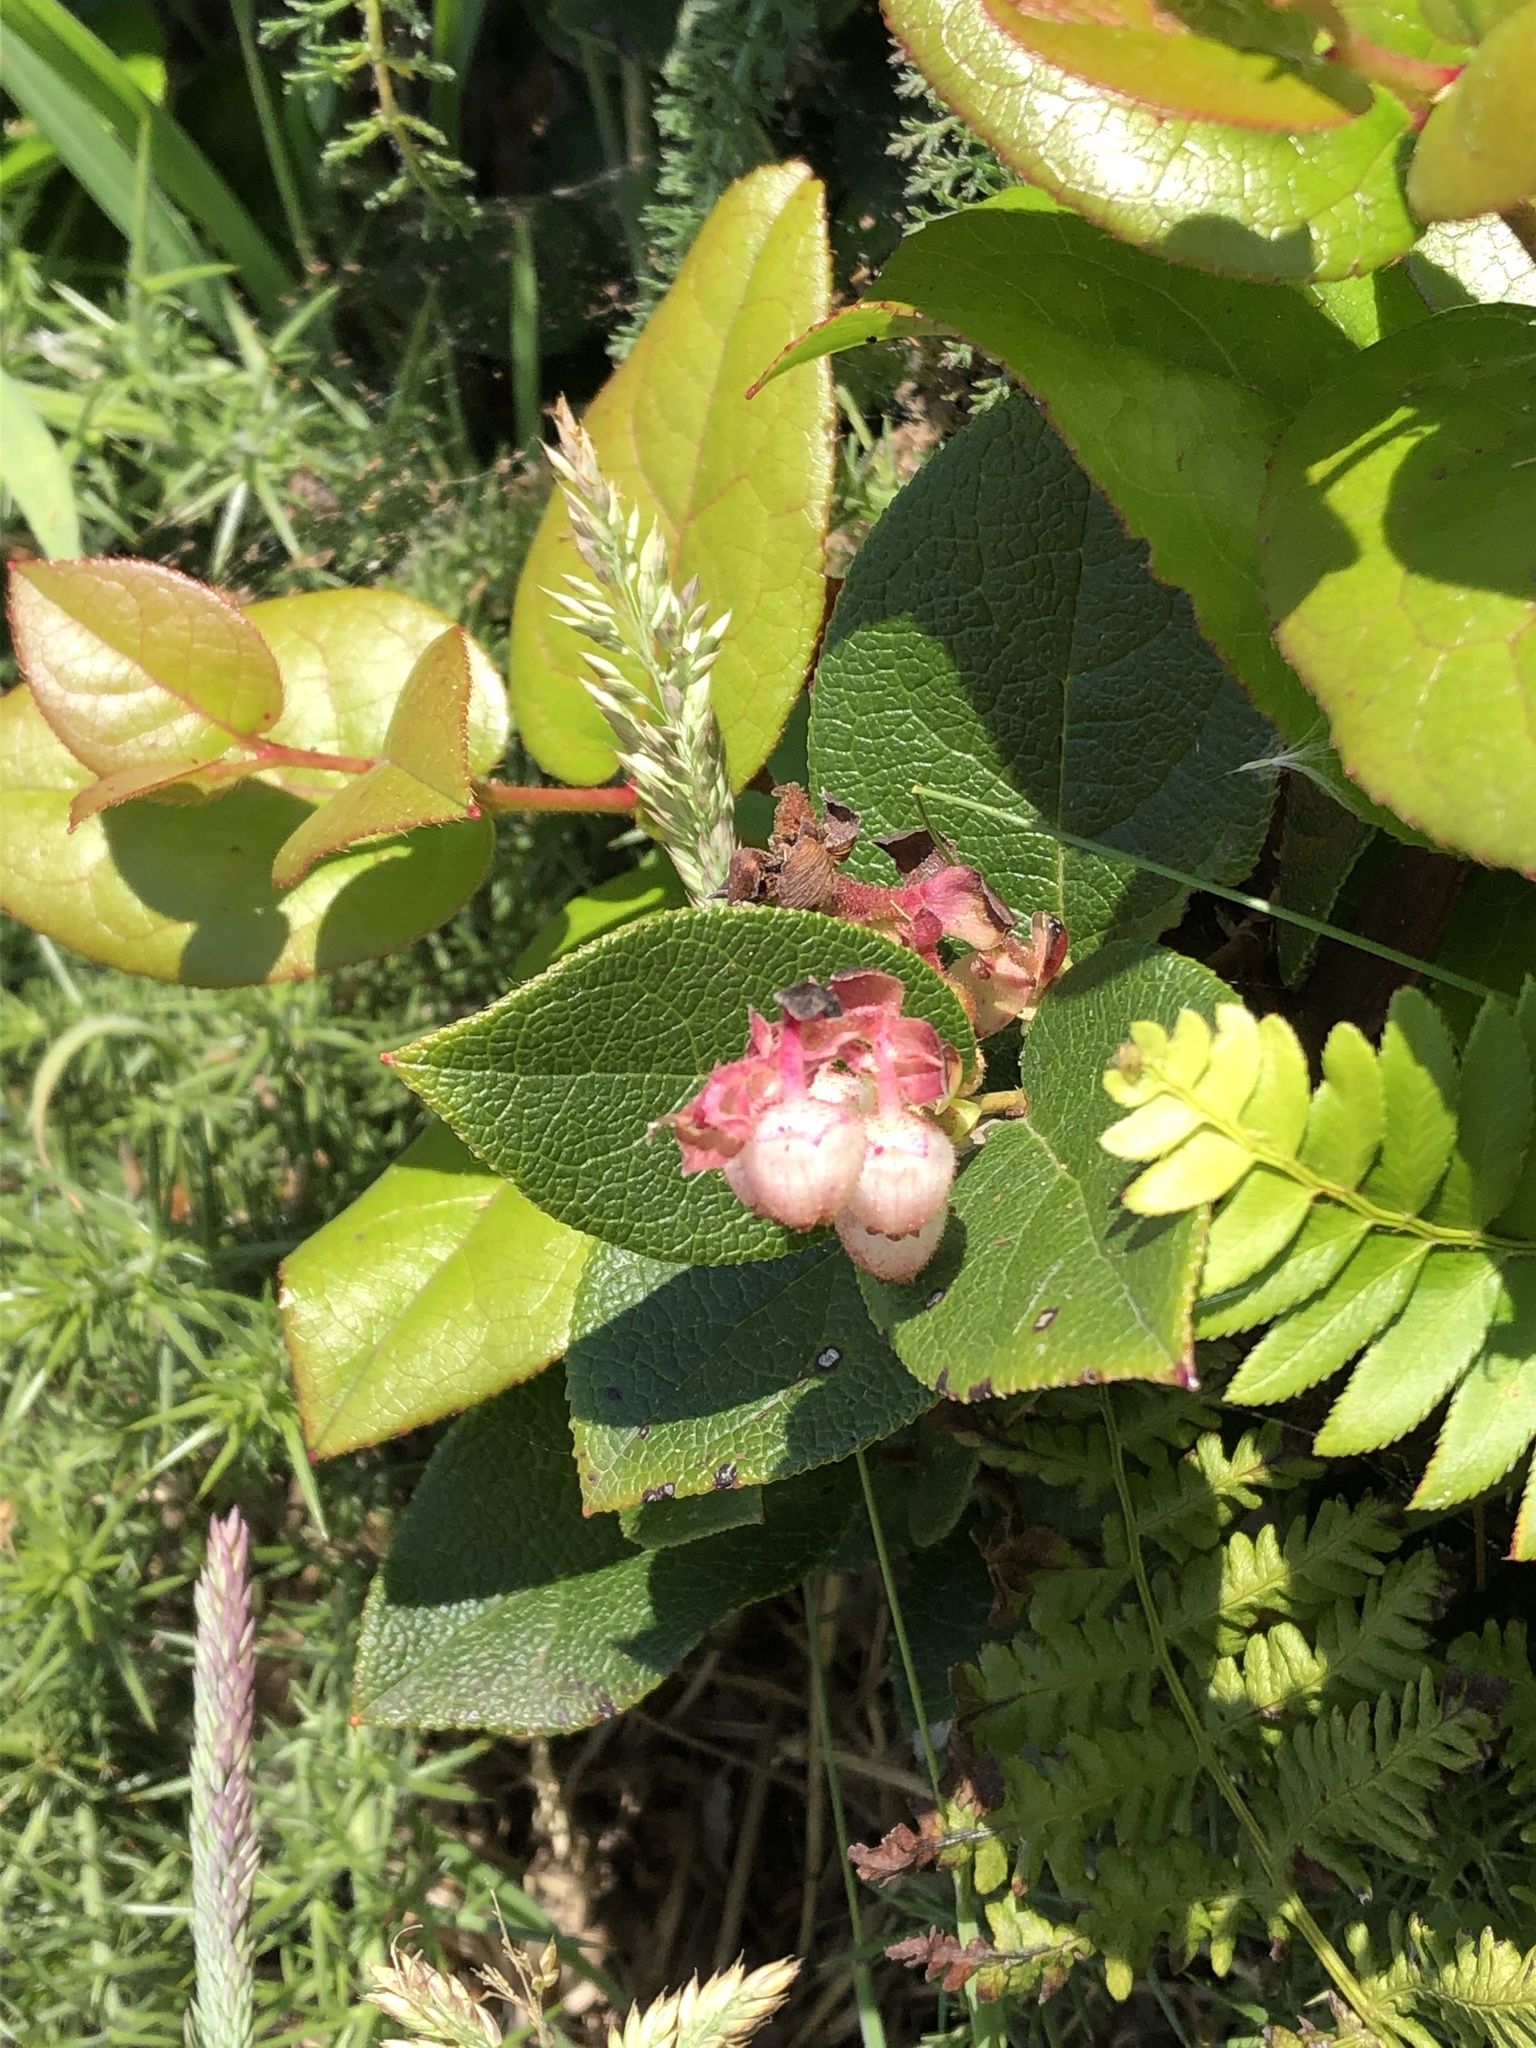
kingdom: Plantae
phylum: Tracheophyta
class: Magnoliopsida
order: Ericales
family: Ericaceae
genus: Gaultheria
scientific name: Gaultheria shallon
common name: Shallon
